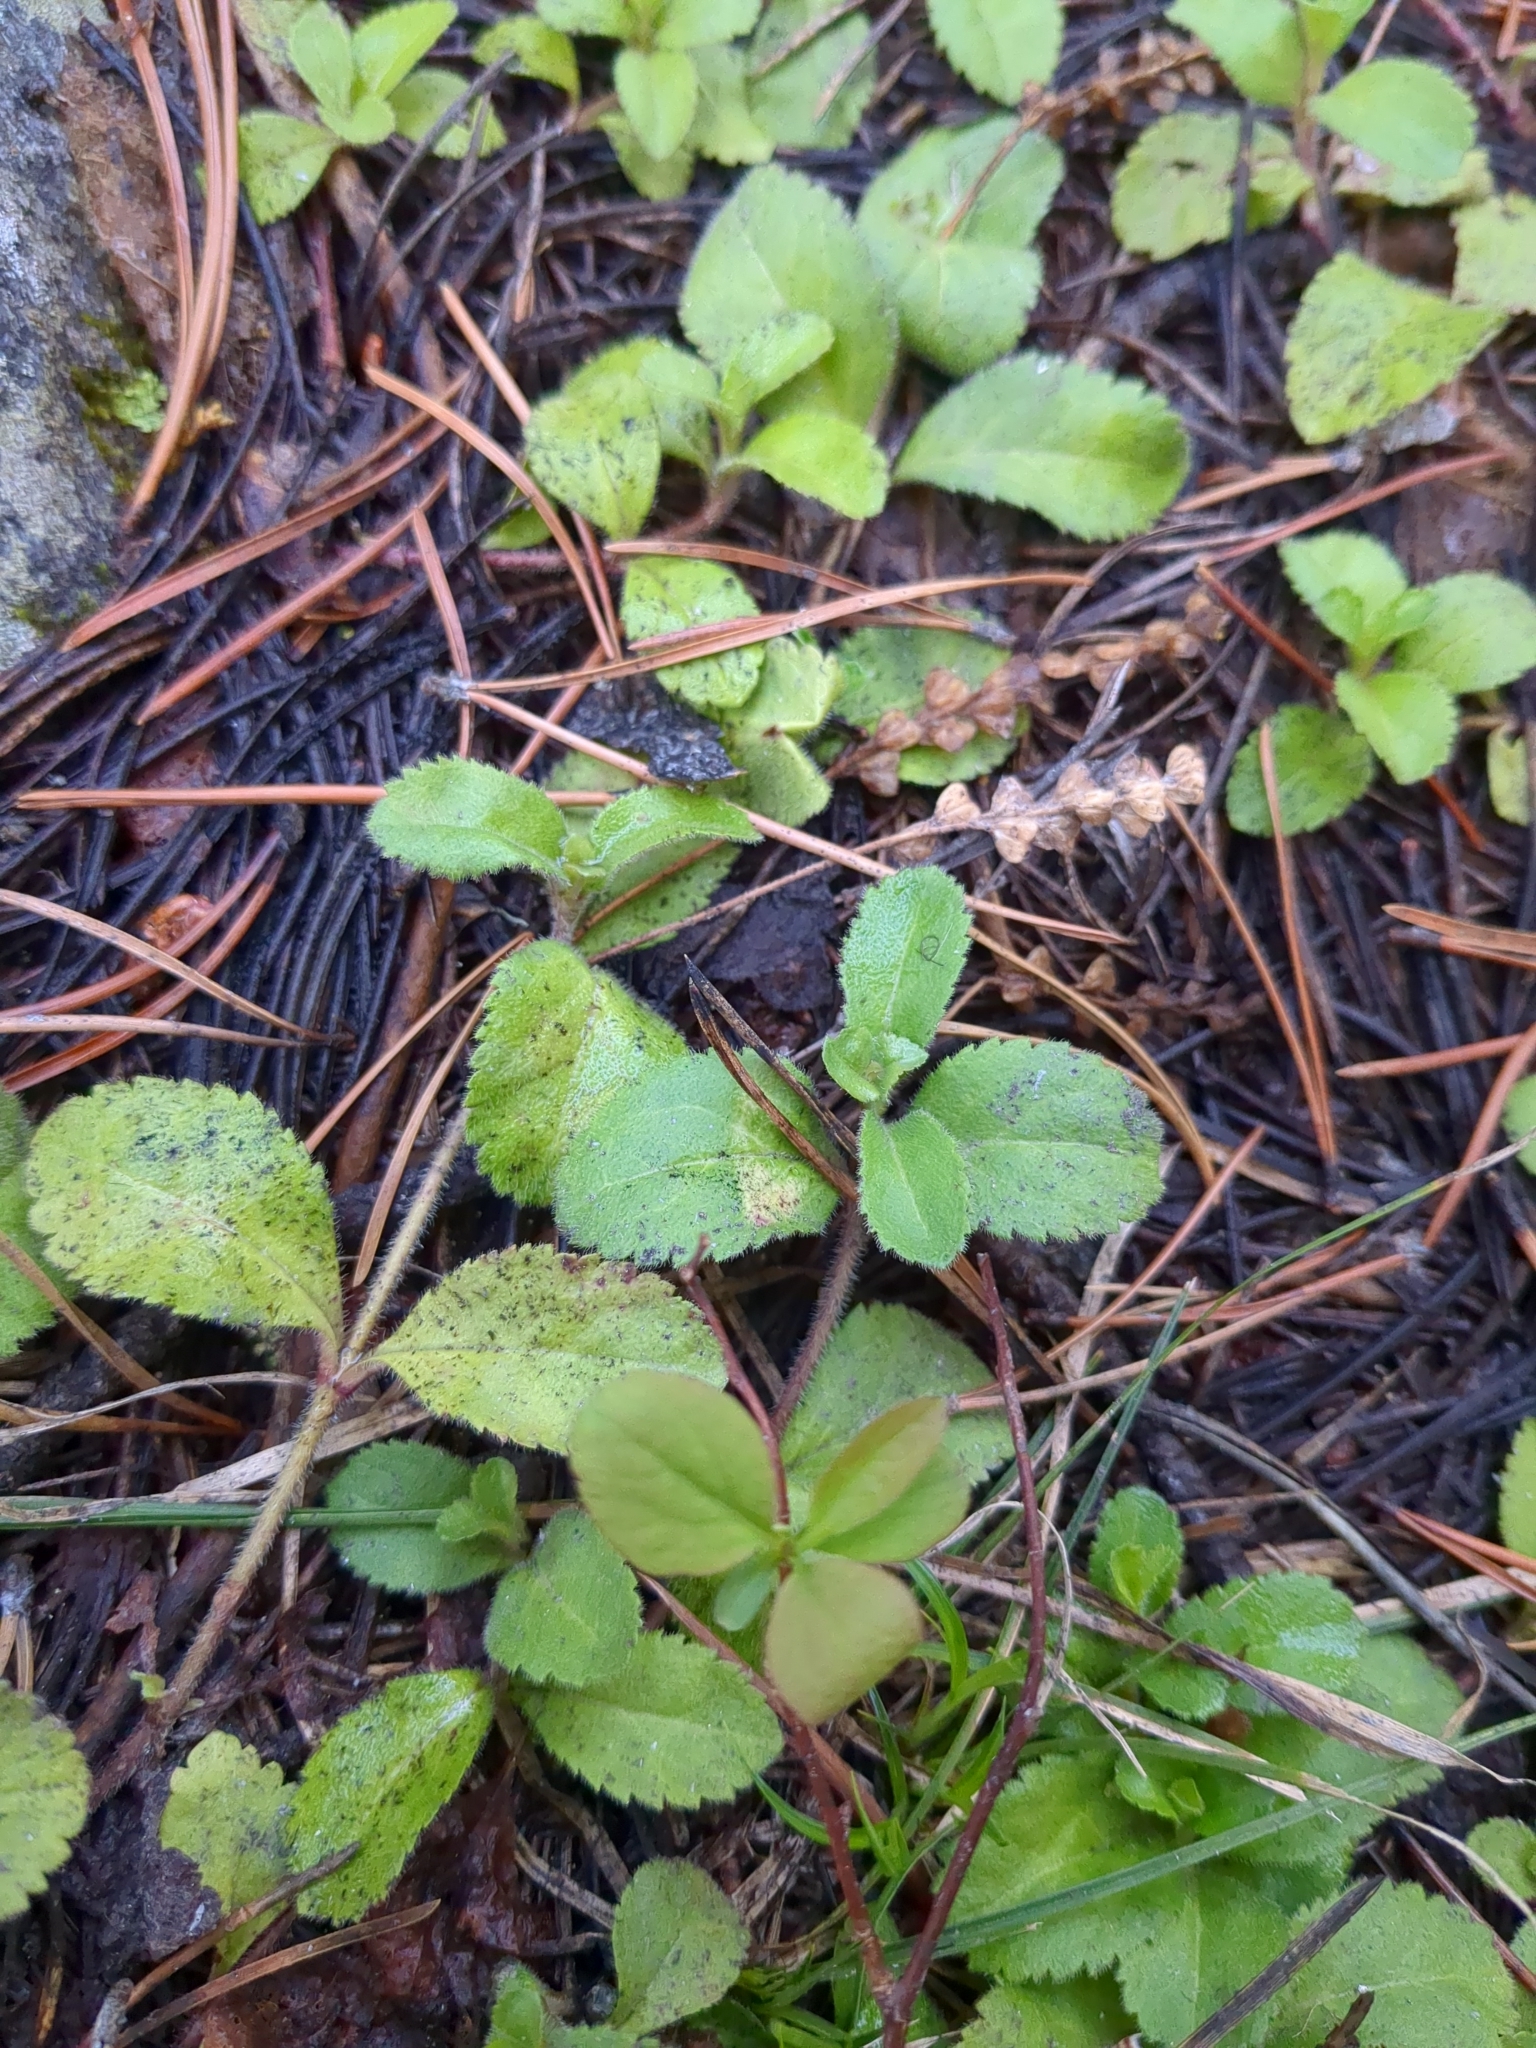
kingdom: Plantae
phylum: Tracheophyta
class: Magnoliopsida
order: Lamiales
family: Plantaginaceae
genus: Veronica
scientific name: Veronica officinalis
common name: Common speedwell
